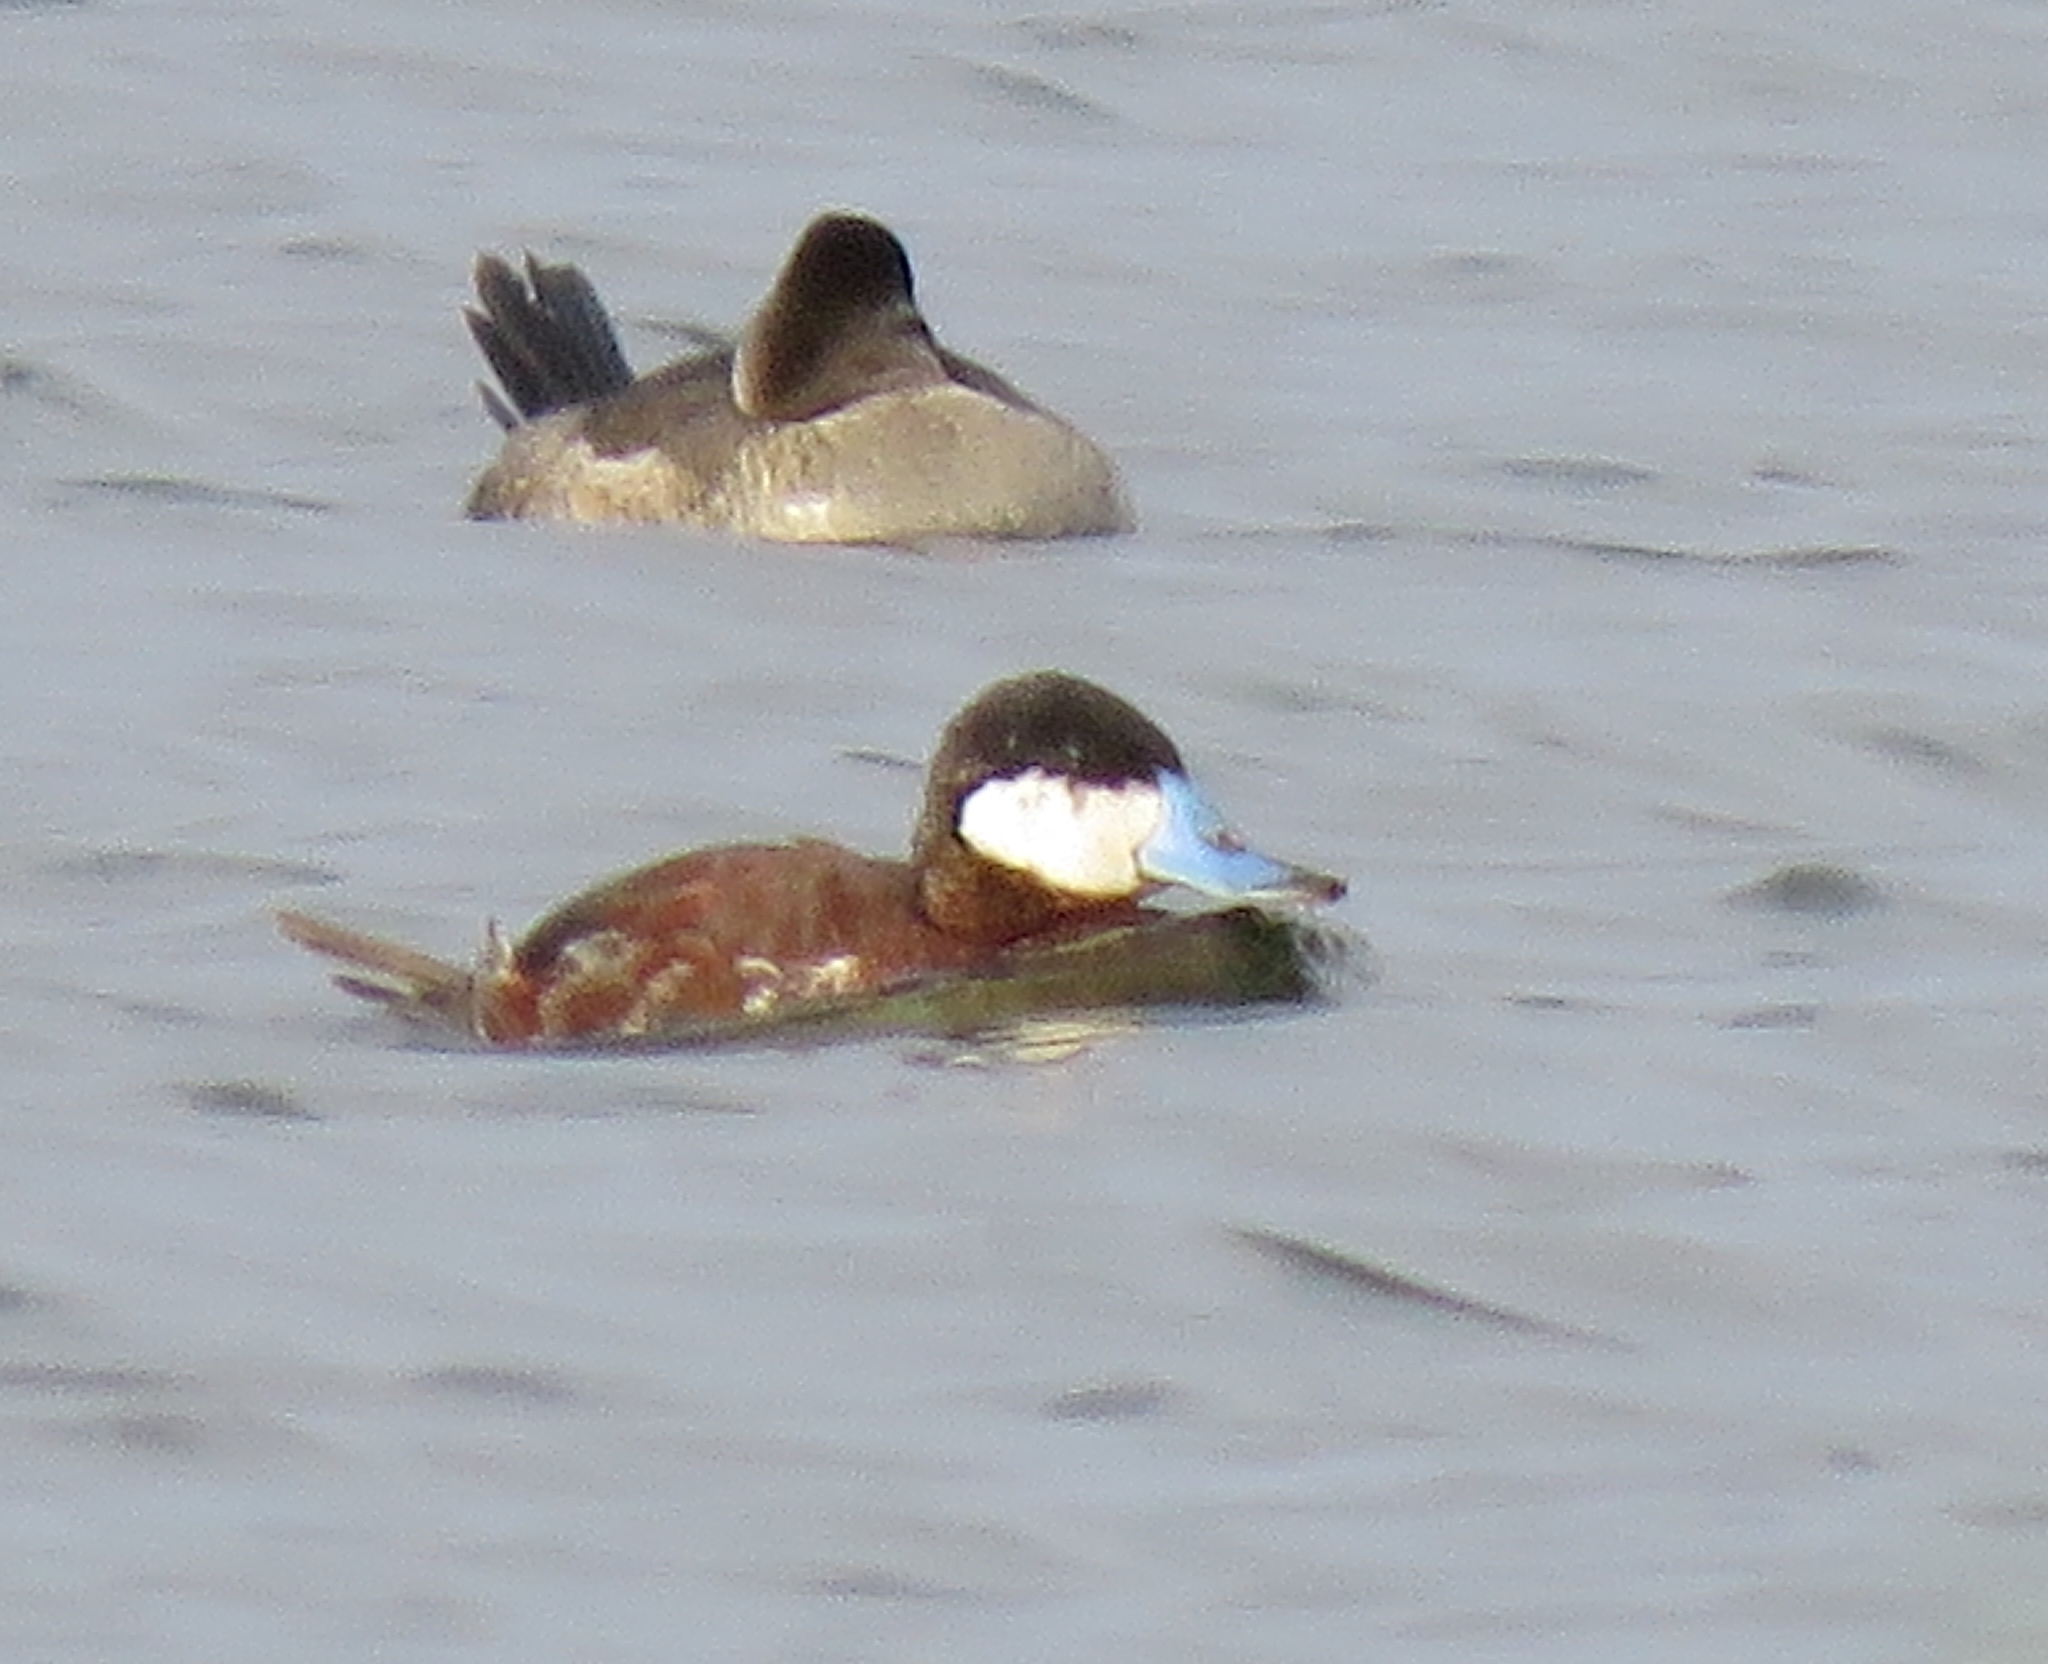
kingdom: Animalia
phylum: Chordata
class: Aves
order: Anseriformes
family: Anatidae
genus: Oxyura
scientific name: Oxyura jamaicensis
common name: Ruddy duck
